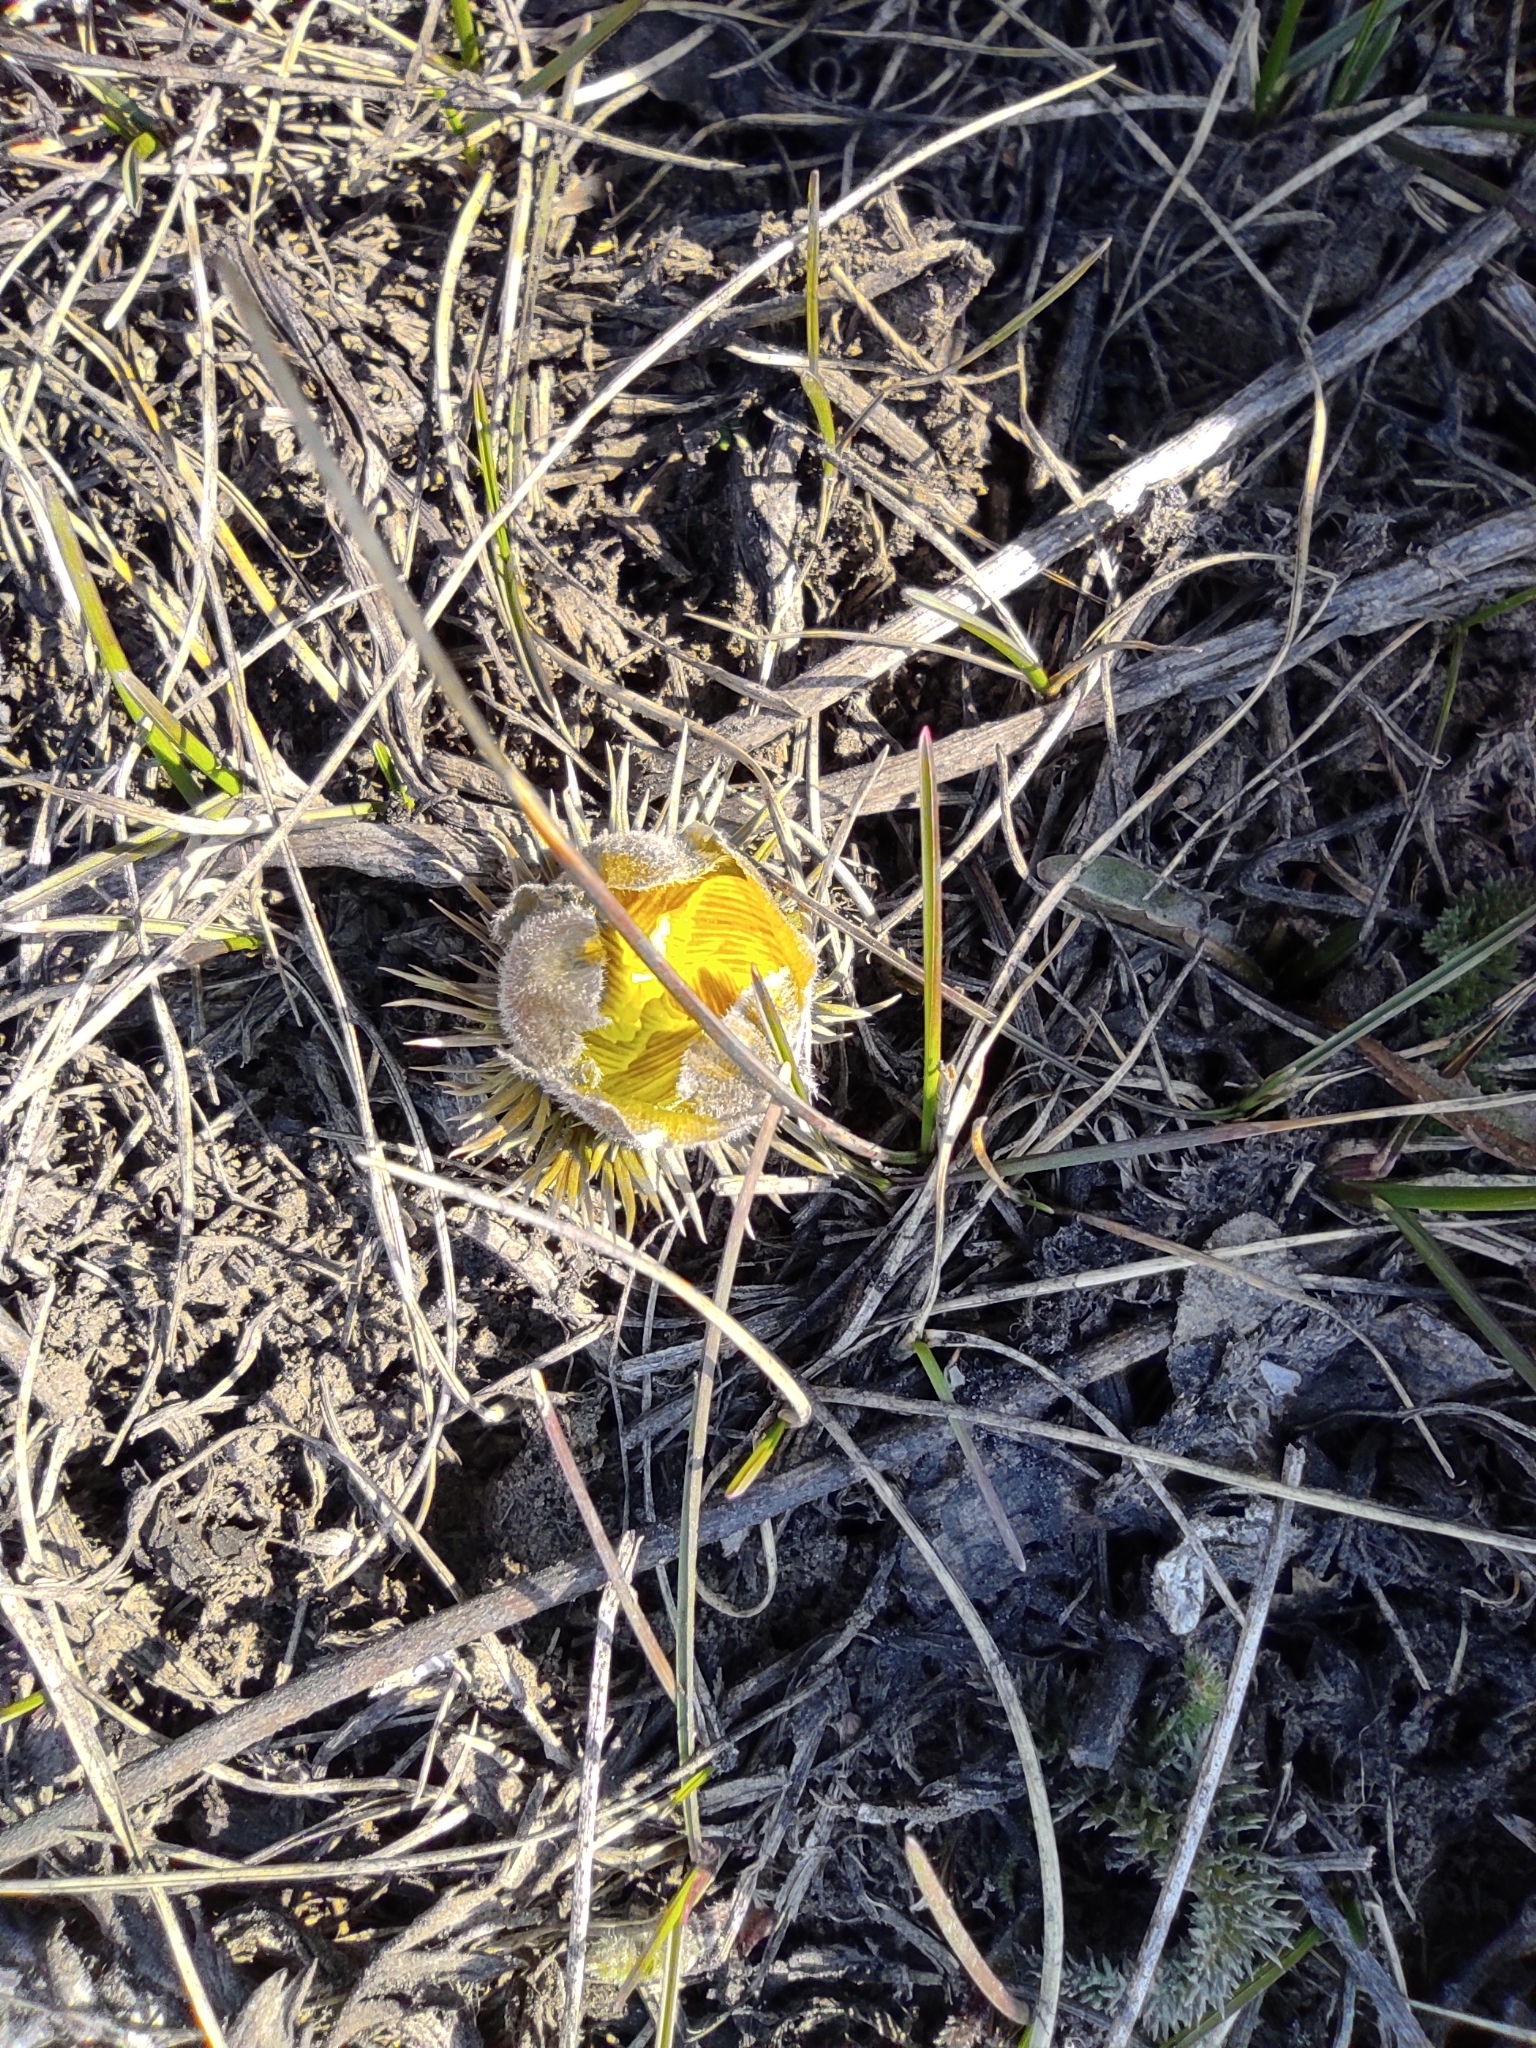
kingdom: Plantae
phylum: Tracheophyta
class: Magnoliopsida
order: Ranunculales
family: Ranunculaceae
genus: Adonis
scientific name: Adonis vernalis
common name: Yellow pheasants-eye
